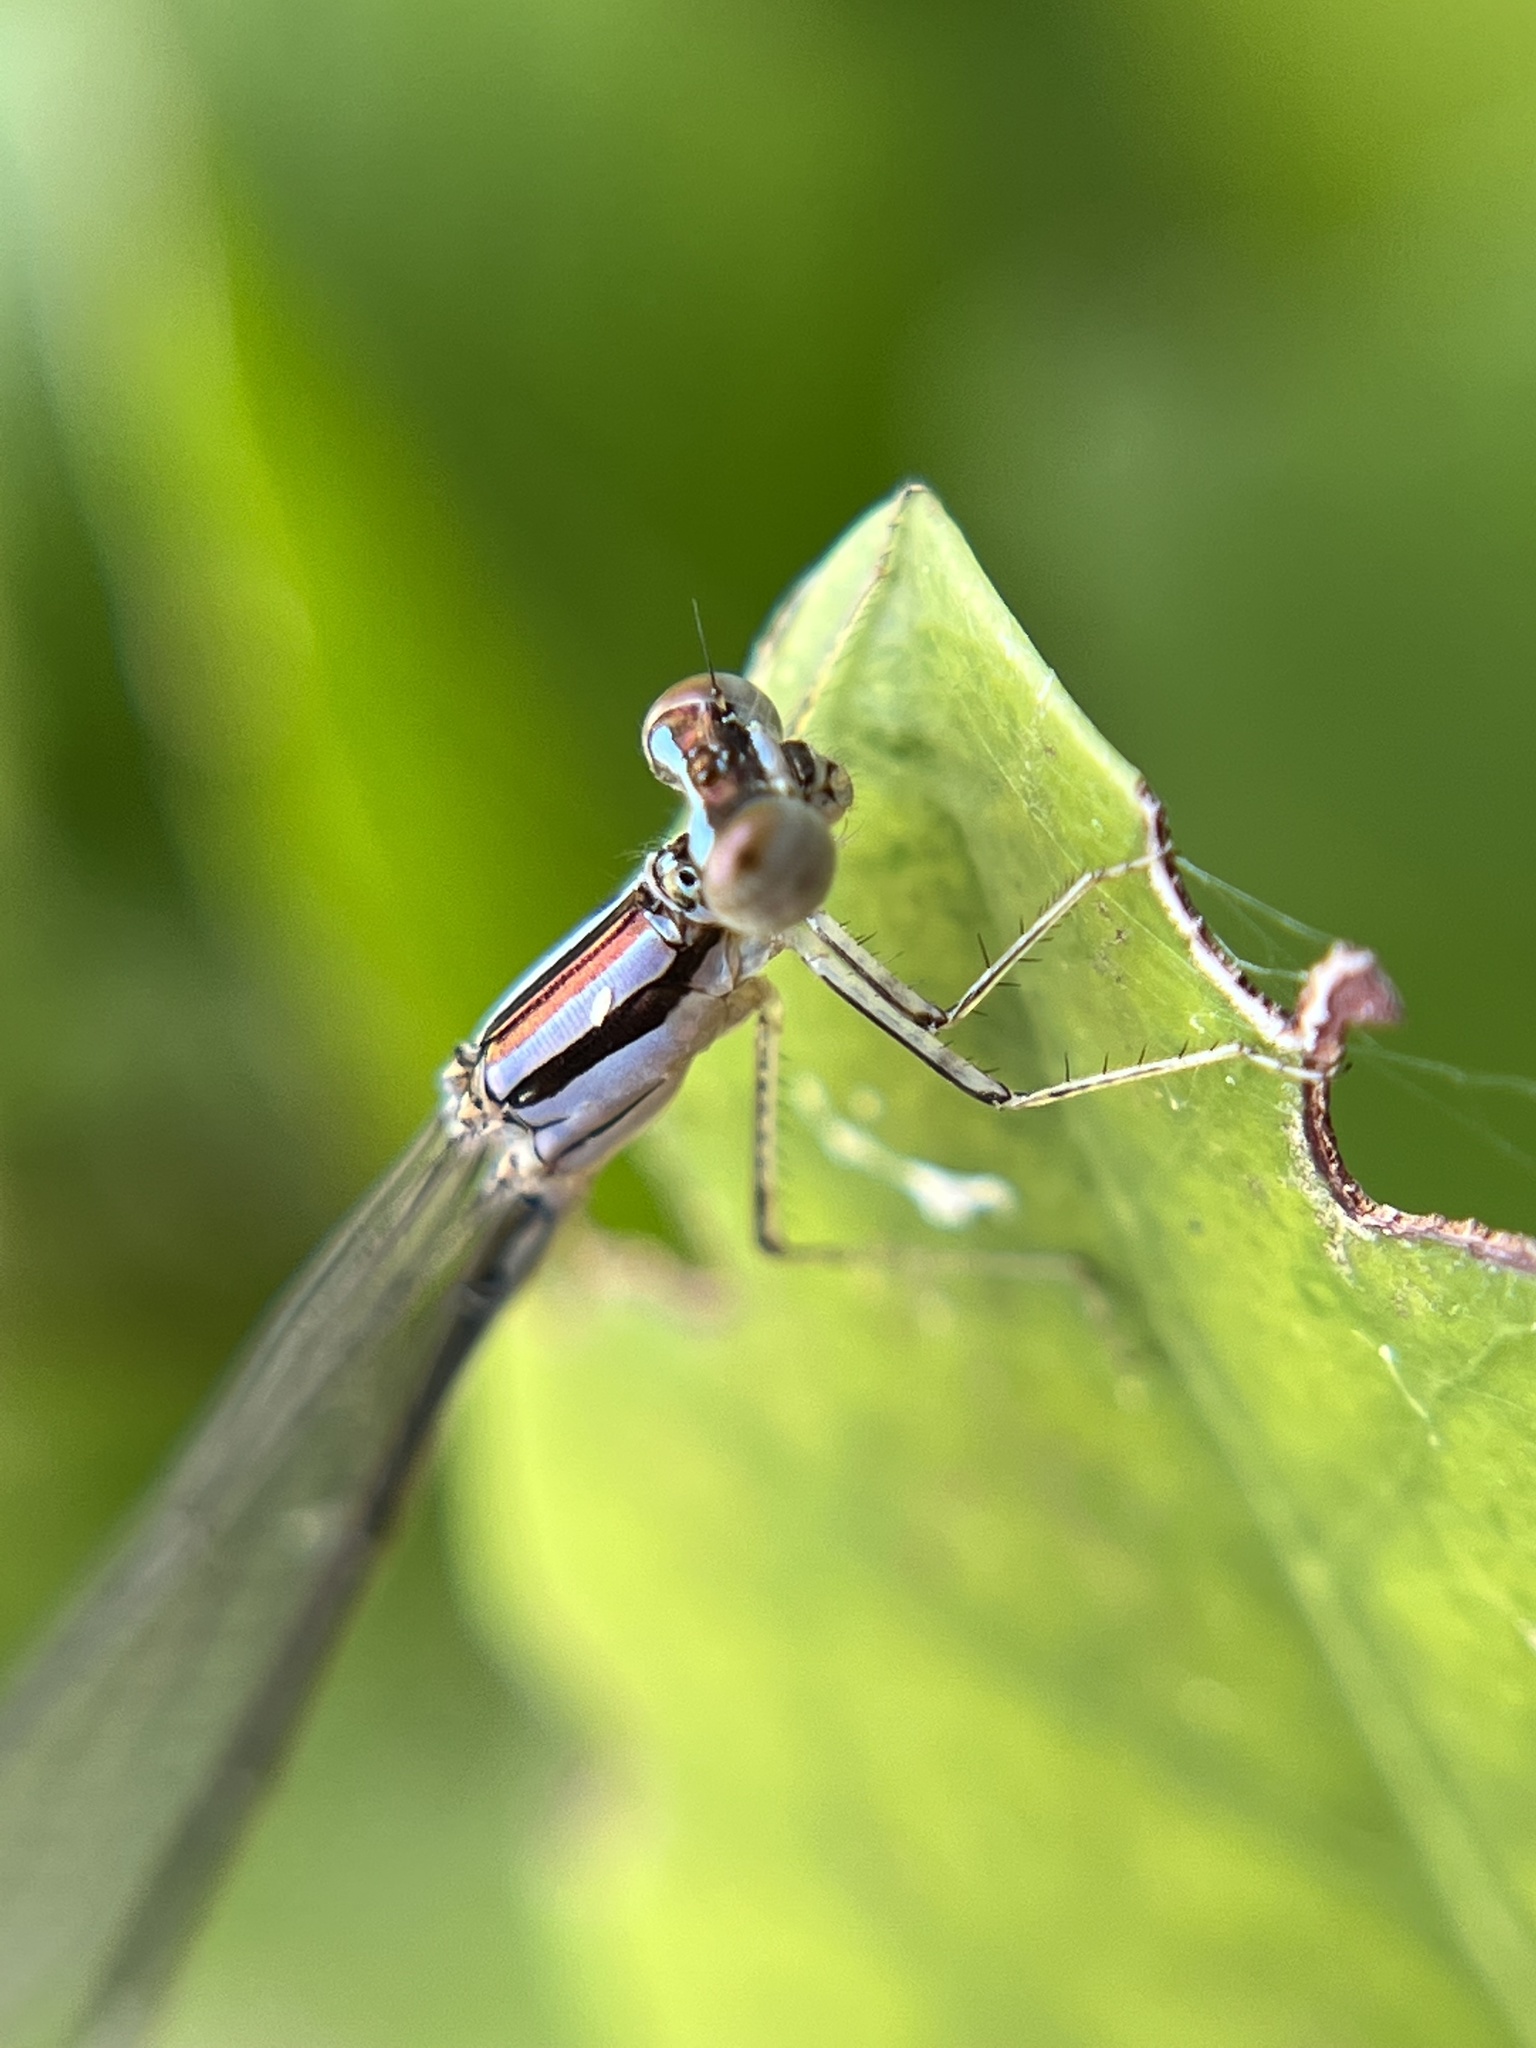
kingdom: Animalia
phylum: Arthropoda
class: Insecta
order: Odonata
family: Coenagrionidae
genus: Enallagma
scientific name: Enallagma pollutum
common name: Florida bluet
